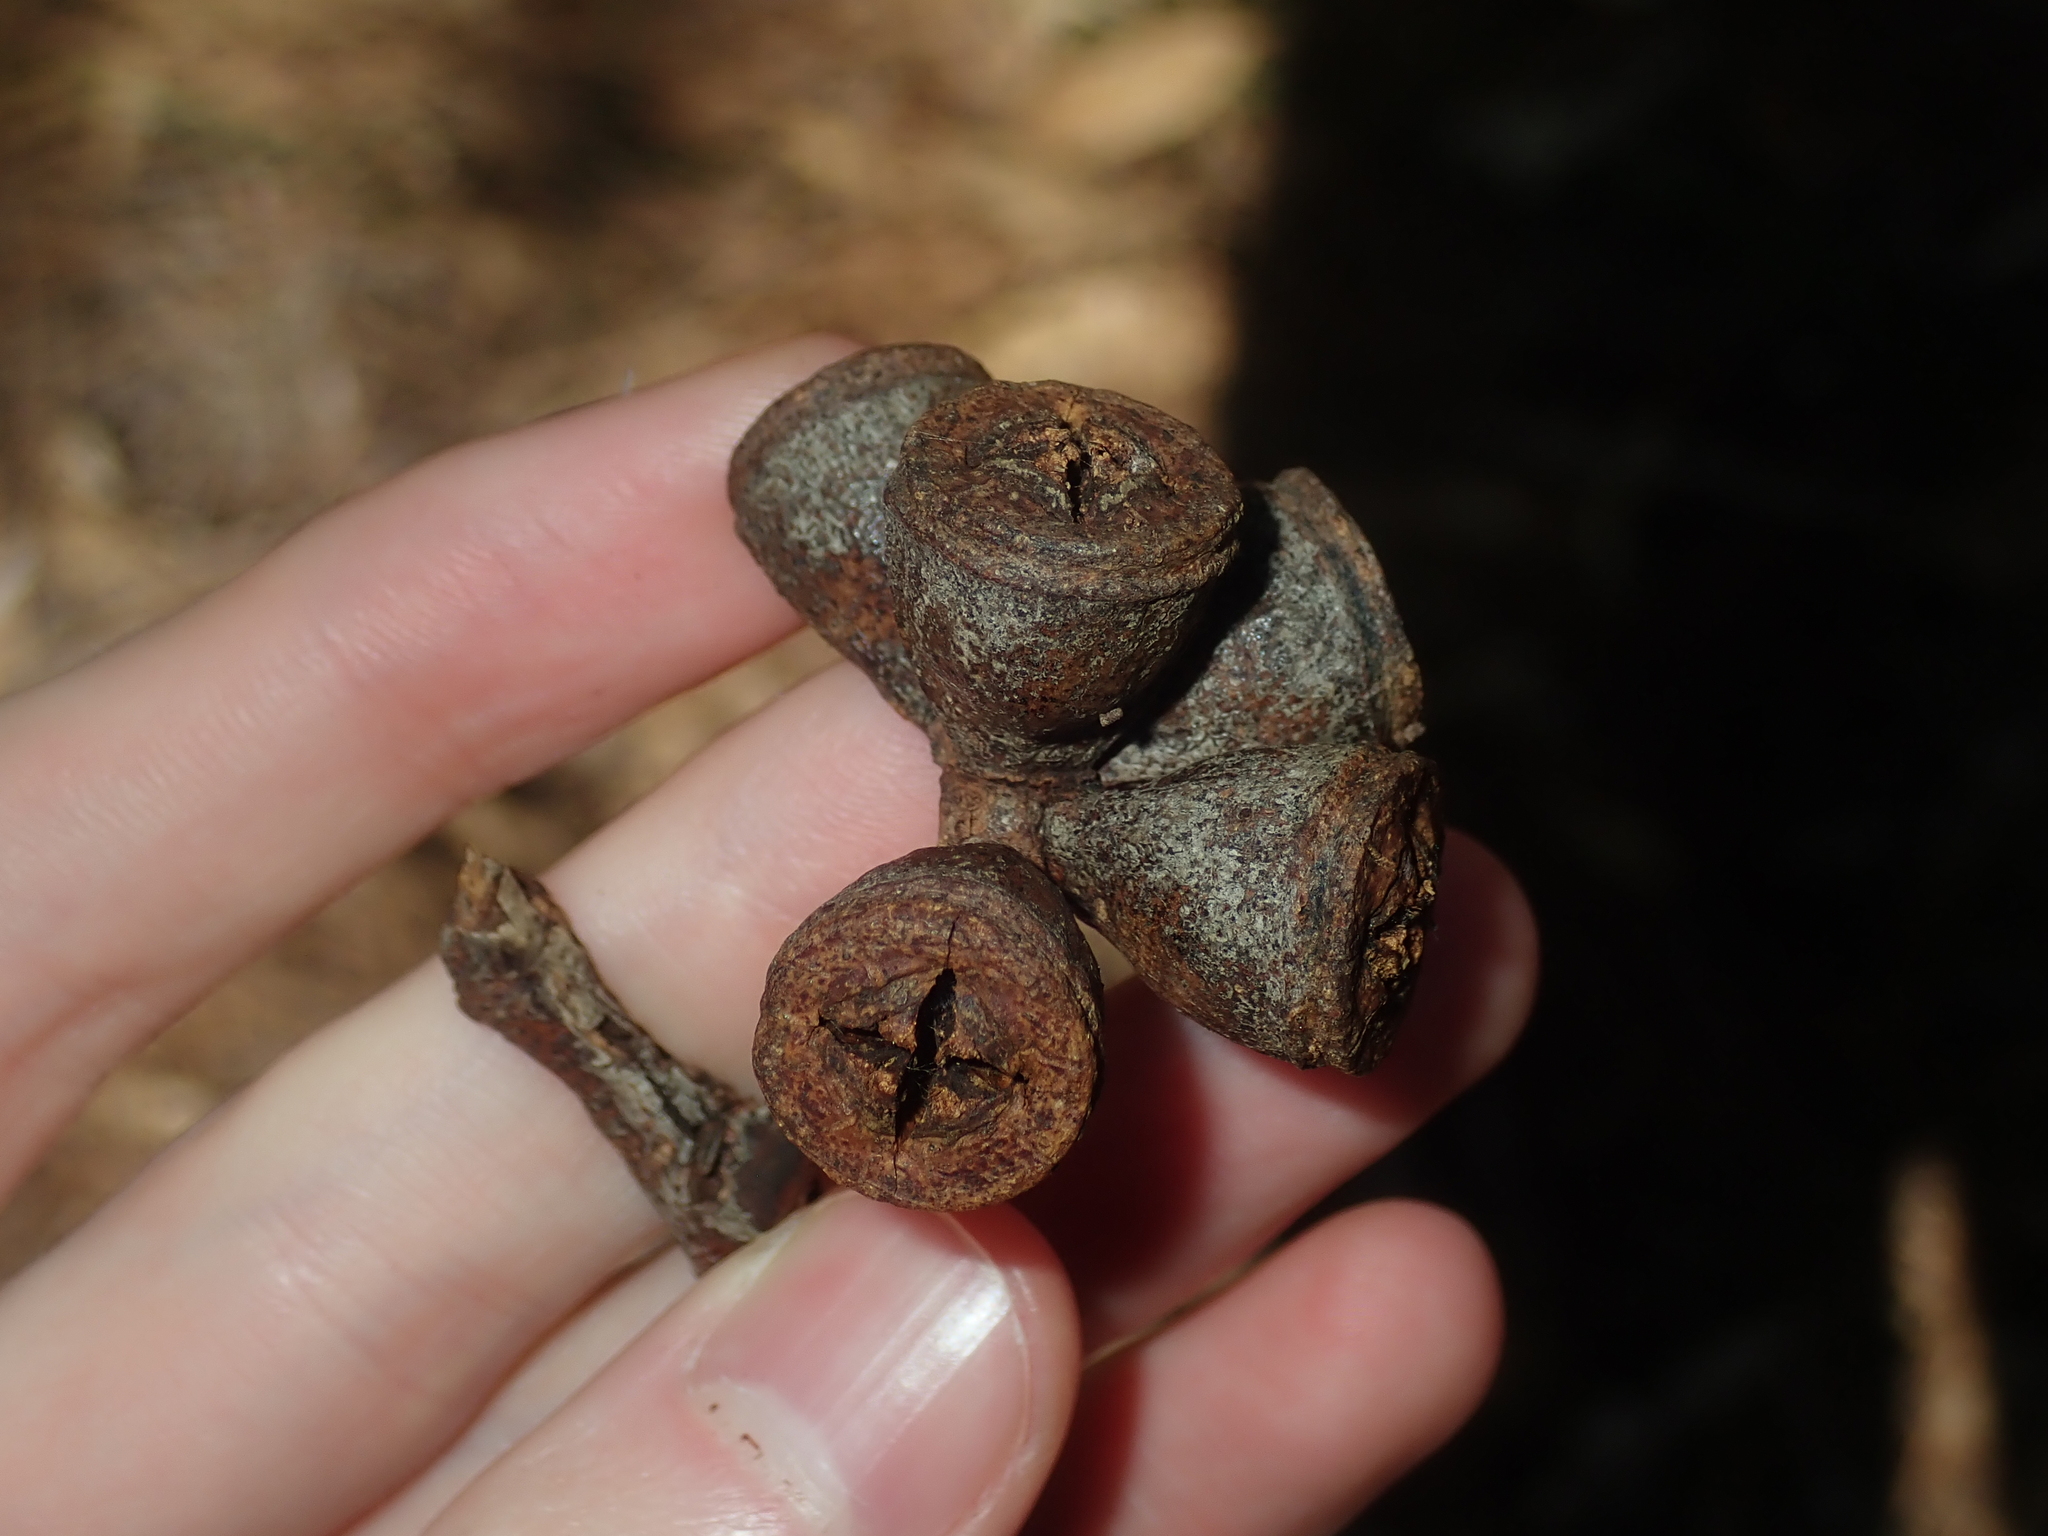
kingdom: Plantae
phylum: Tracheophyta
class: Magnoliopsida
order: Myrtales
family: Myrtaceae
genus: Eucalyptus
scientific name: Eucalyptus gomphocephala
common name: Tuart
